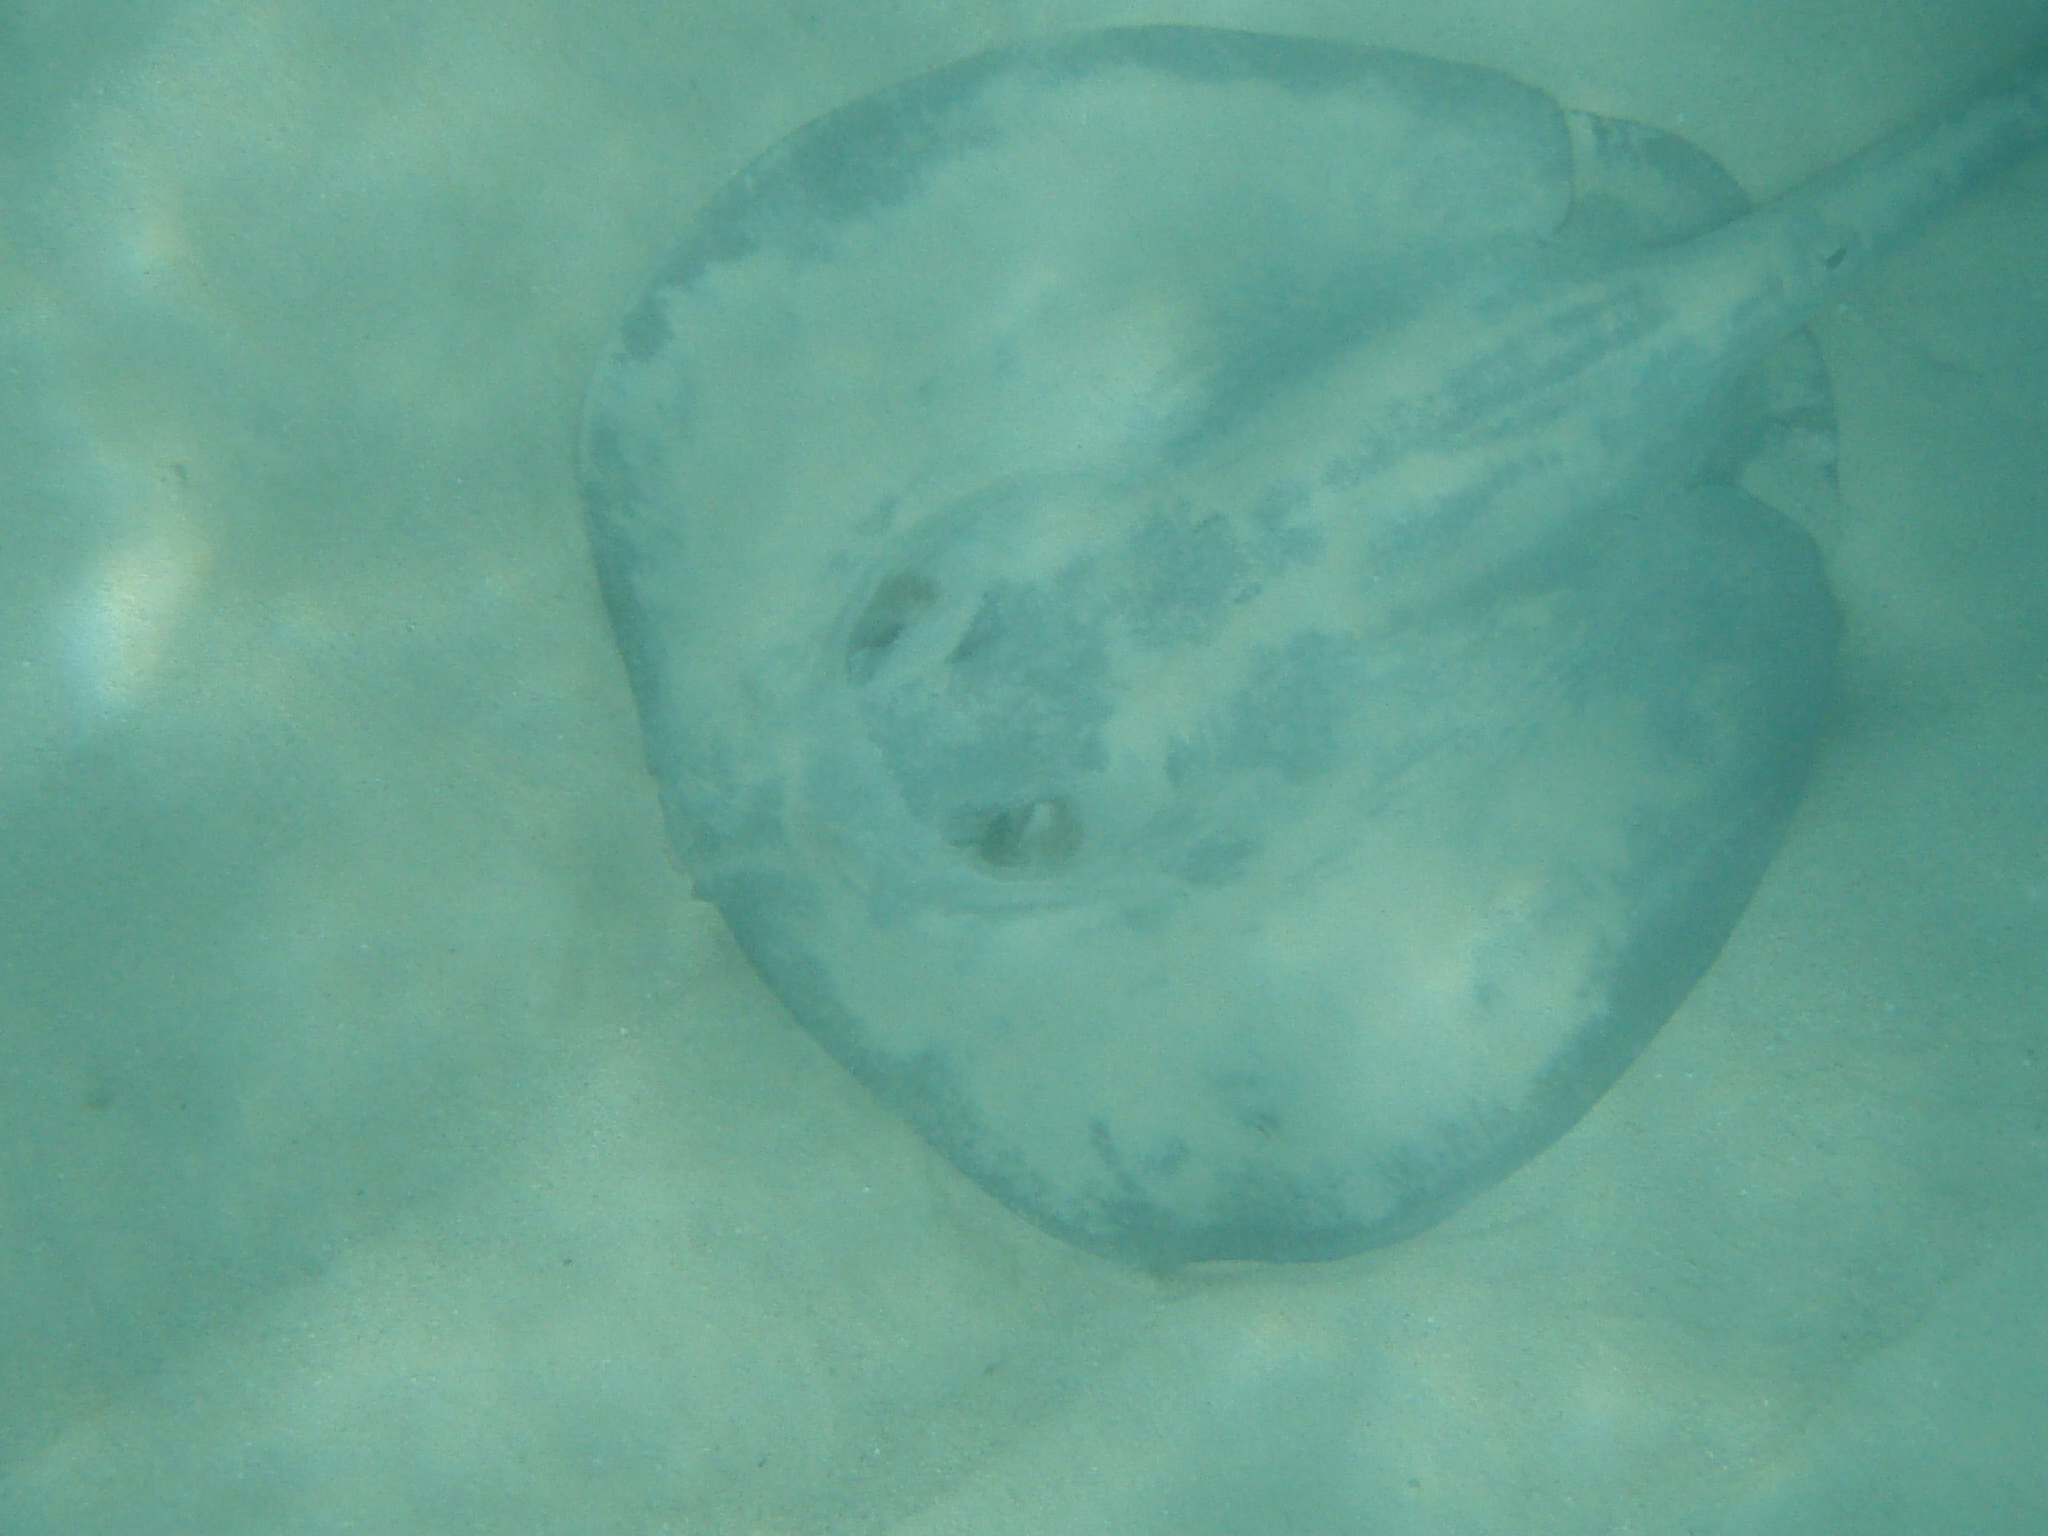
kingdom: Animalia
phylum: Chordata
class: Elasmobranchii
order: Myliobatiformes
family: Potamotrygonidae
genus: Styracura
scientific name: Styracura schmardae
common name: Atlantic chupare
